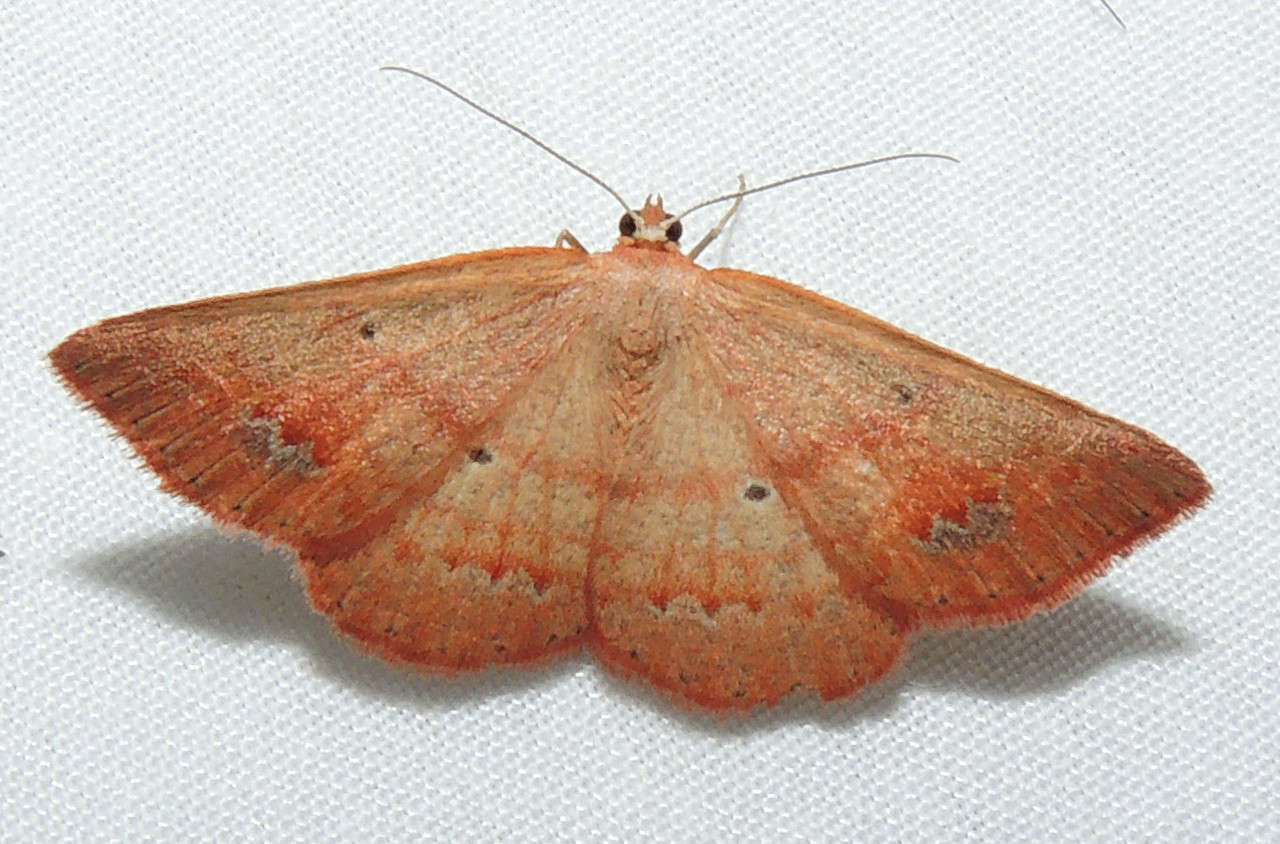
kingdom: Animalia
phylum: Arthropoda
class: Insecta
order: Lepidoptera
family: Geometridae
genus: Casbia
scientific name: Casbia oenias
